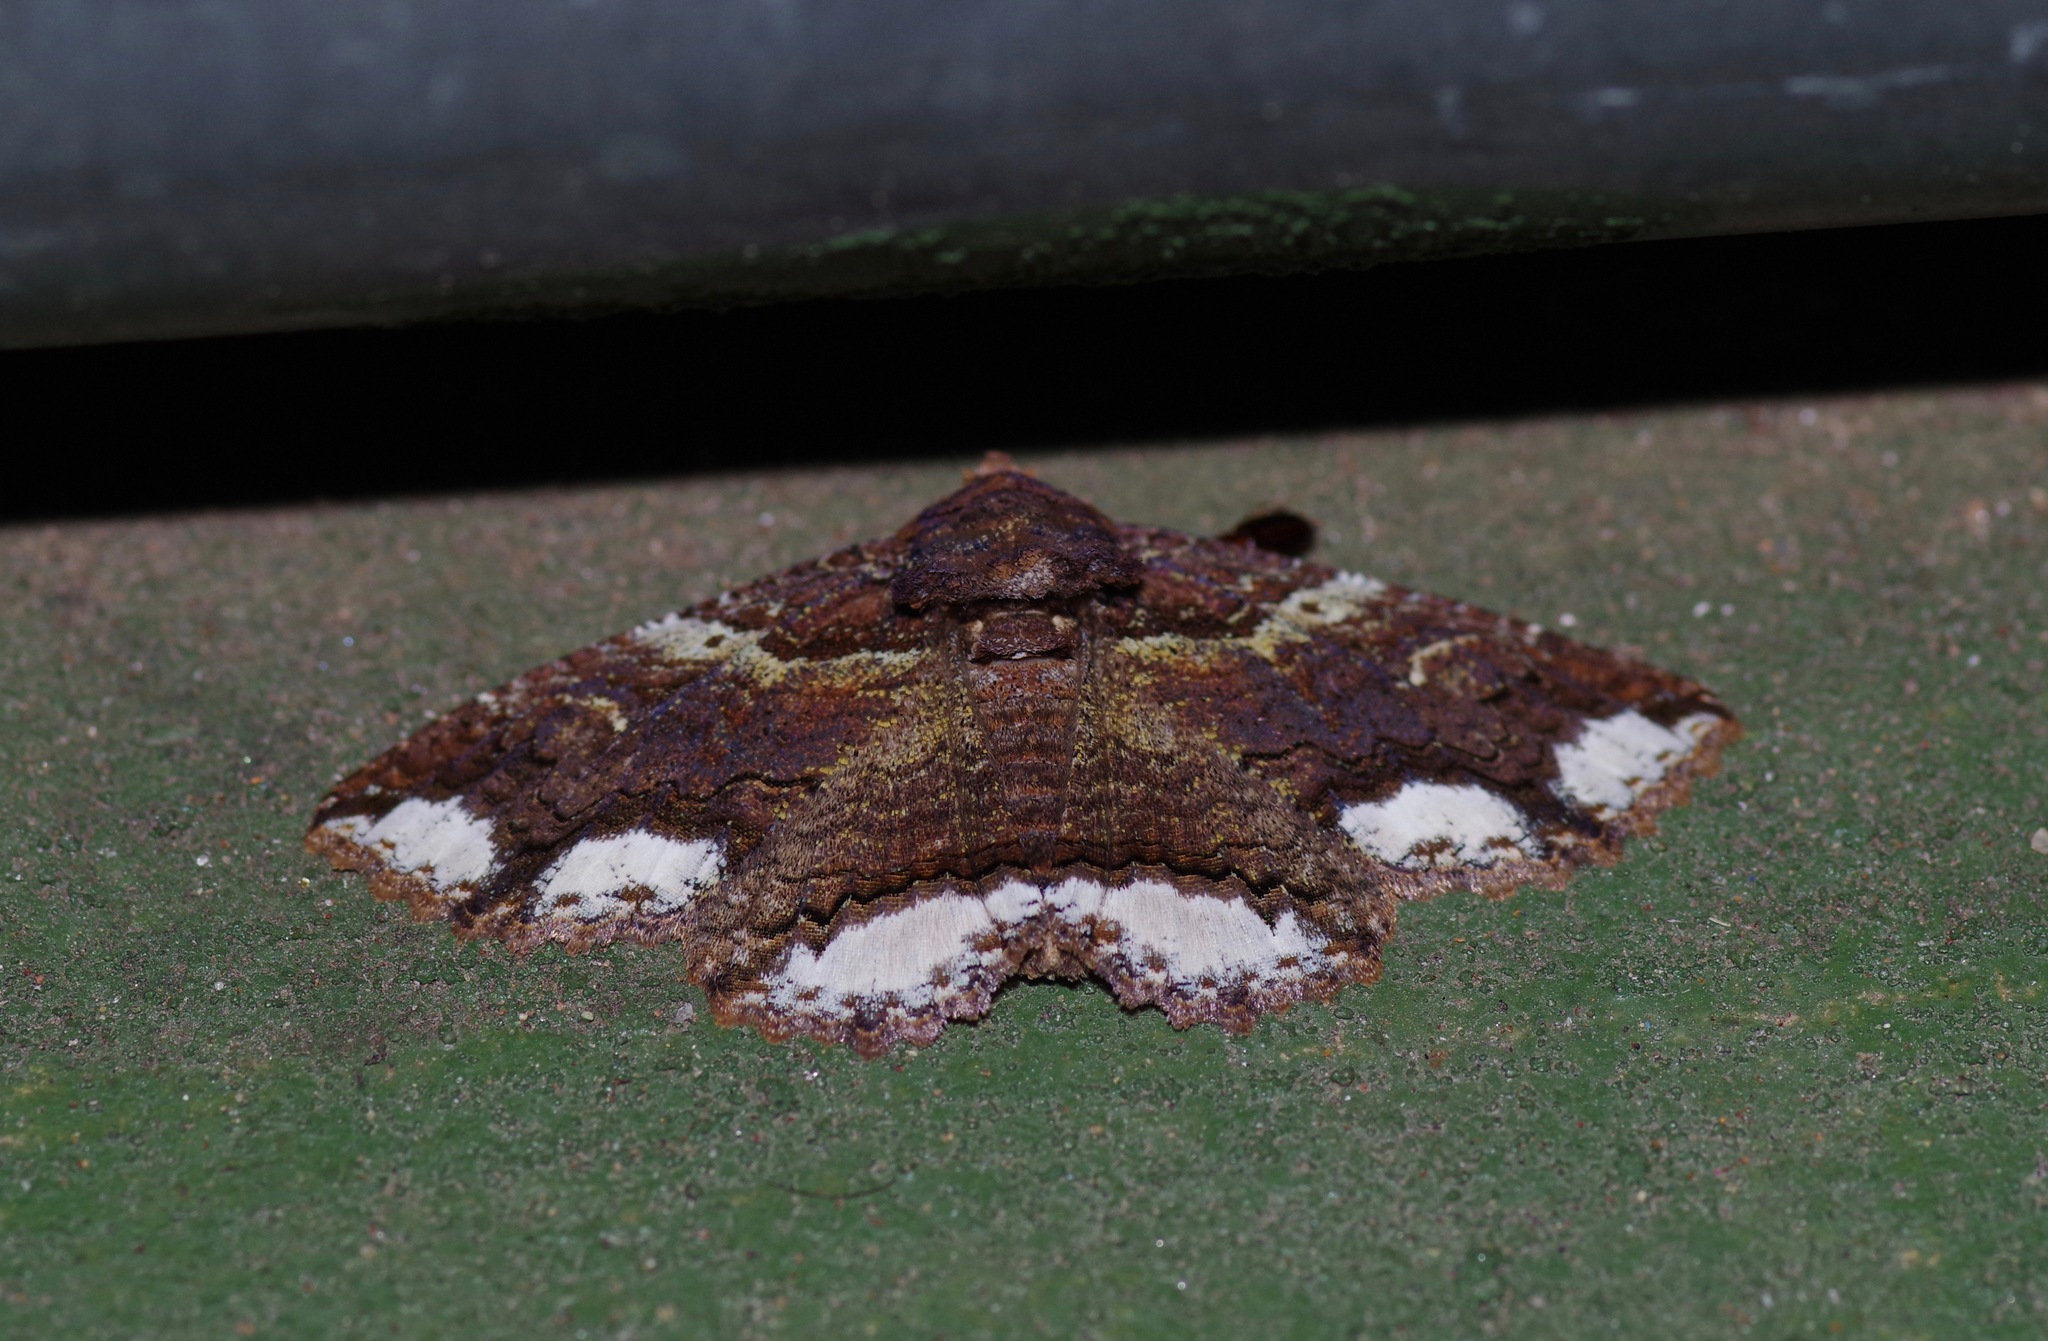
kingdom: Animalia
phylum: Arthropoda
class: Insecta
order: Lepidoptera
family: Erebidae
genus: Zale
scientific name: Zale lunata
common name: Lunate zale moth
